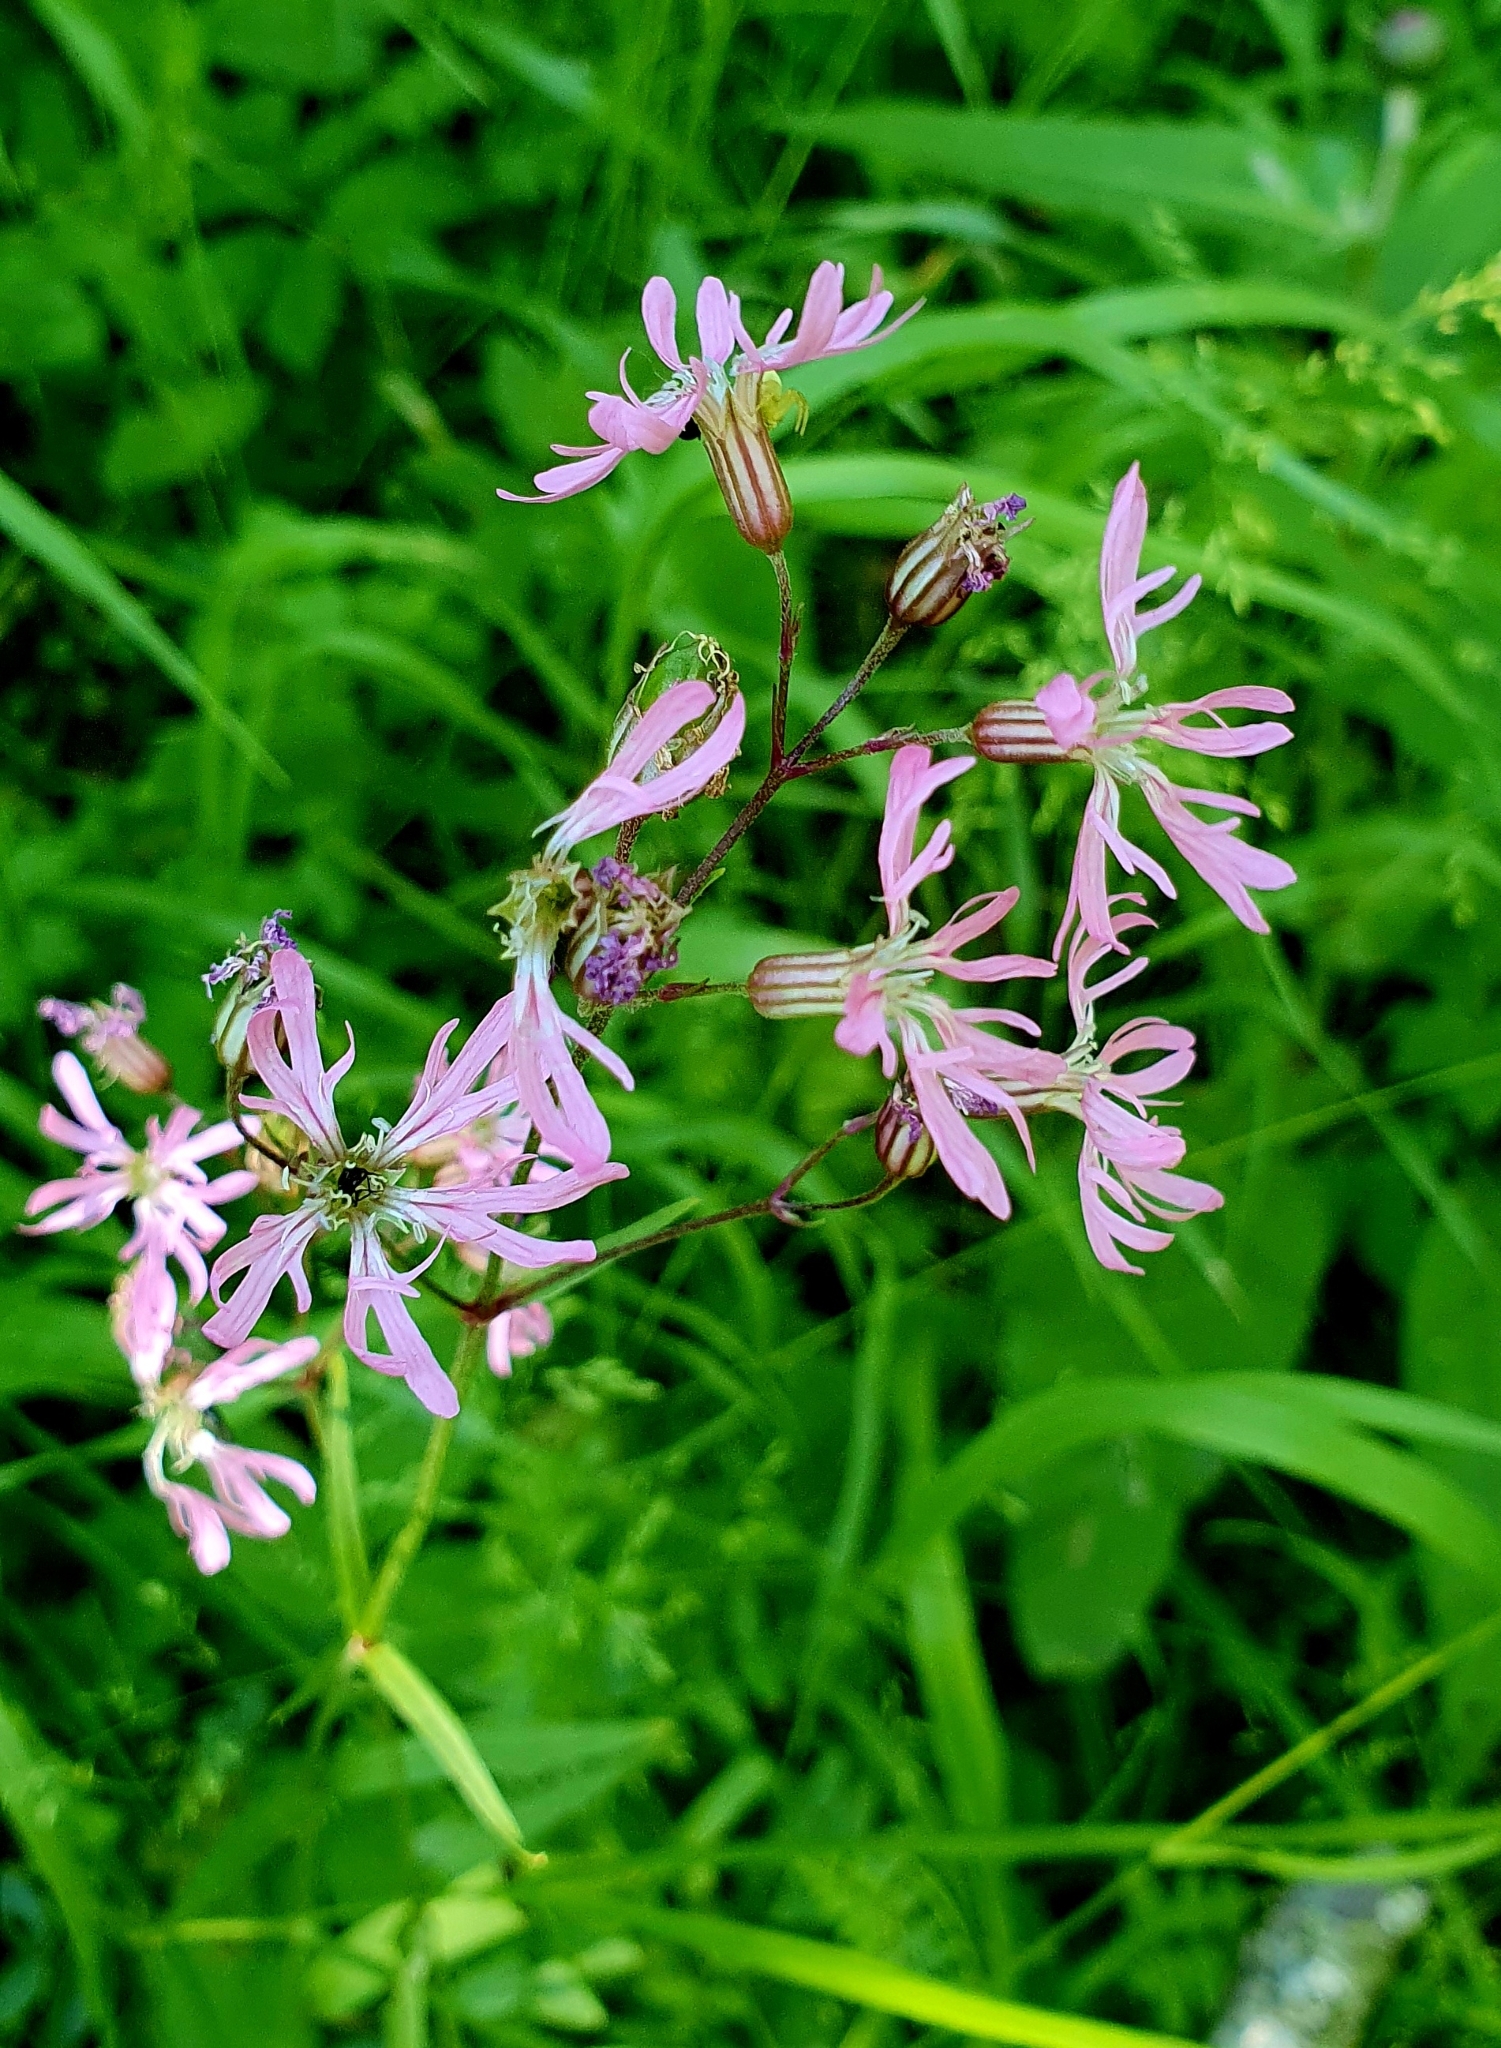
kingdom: Plantae
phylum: Tracheophyta
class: Magnoliopsida
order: Caryophyllales
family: Caryophyllaceae
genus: Silene
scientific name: Silene flos-cuculi
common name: Ragged-robin
